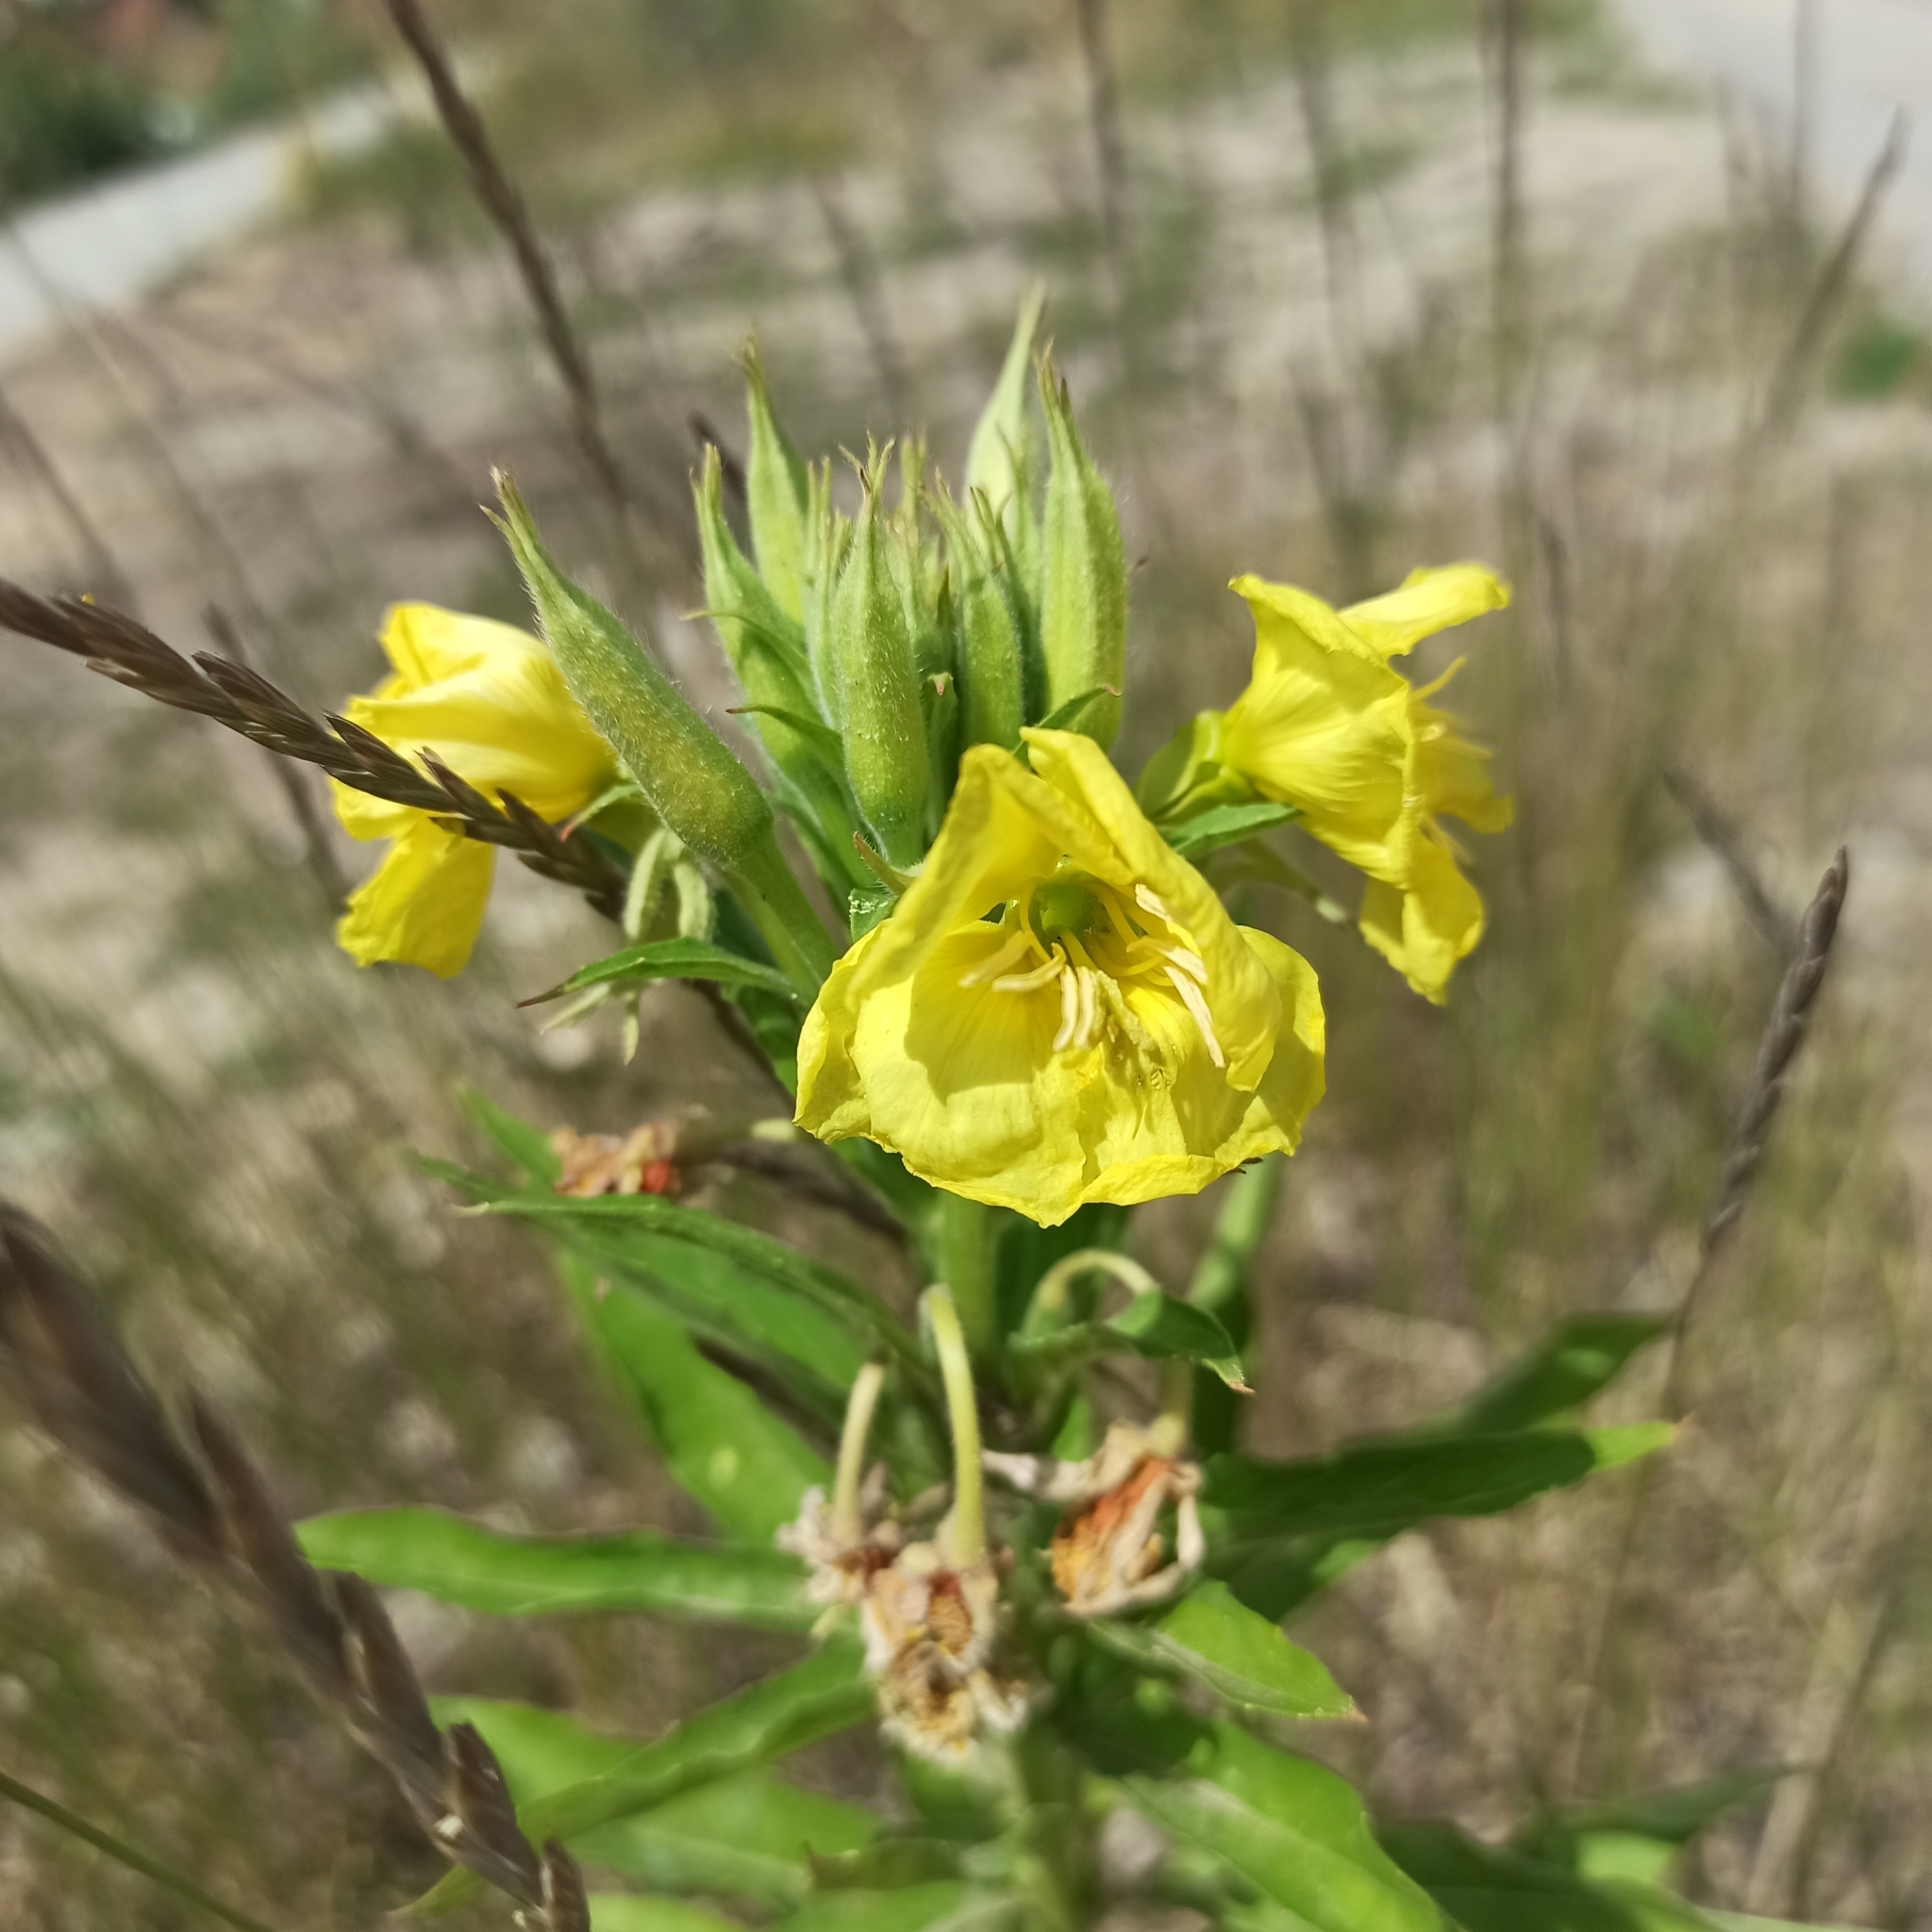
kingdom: Plantae
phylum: Tracheophyta
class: Magnoliopsida
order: Myrtales
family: Onagraceae
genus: Oenothera
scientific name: Oenothera biennis
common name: Common evening-primrose
